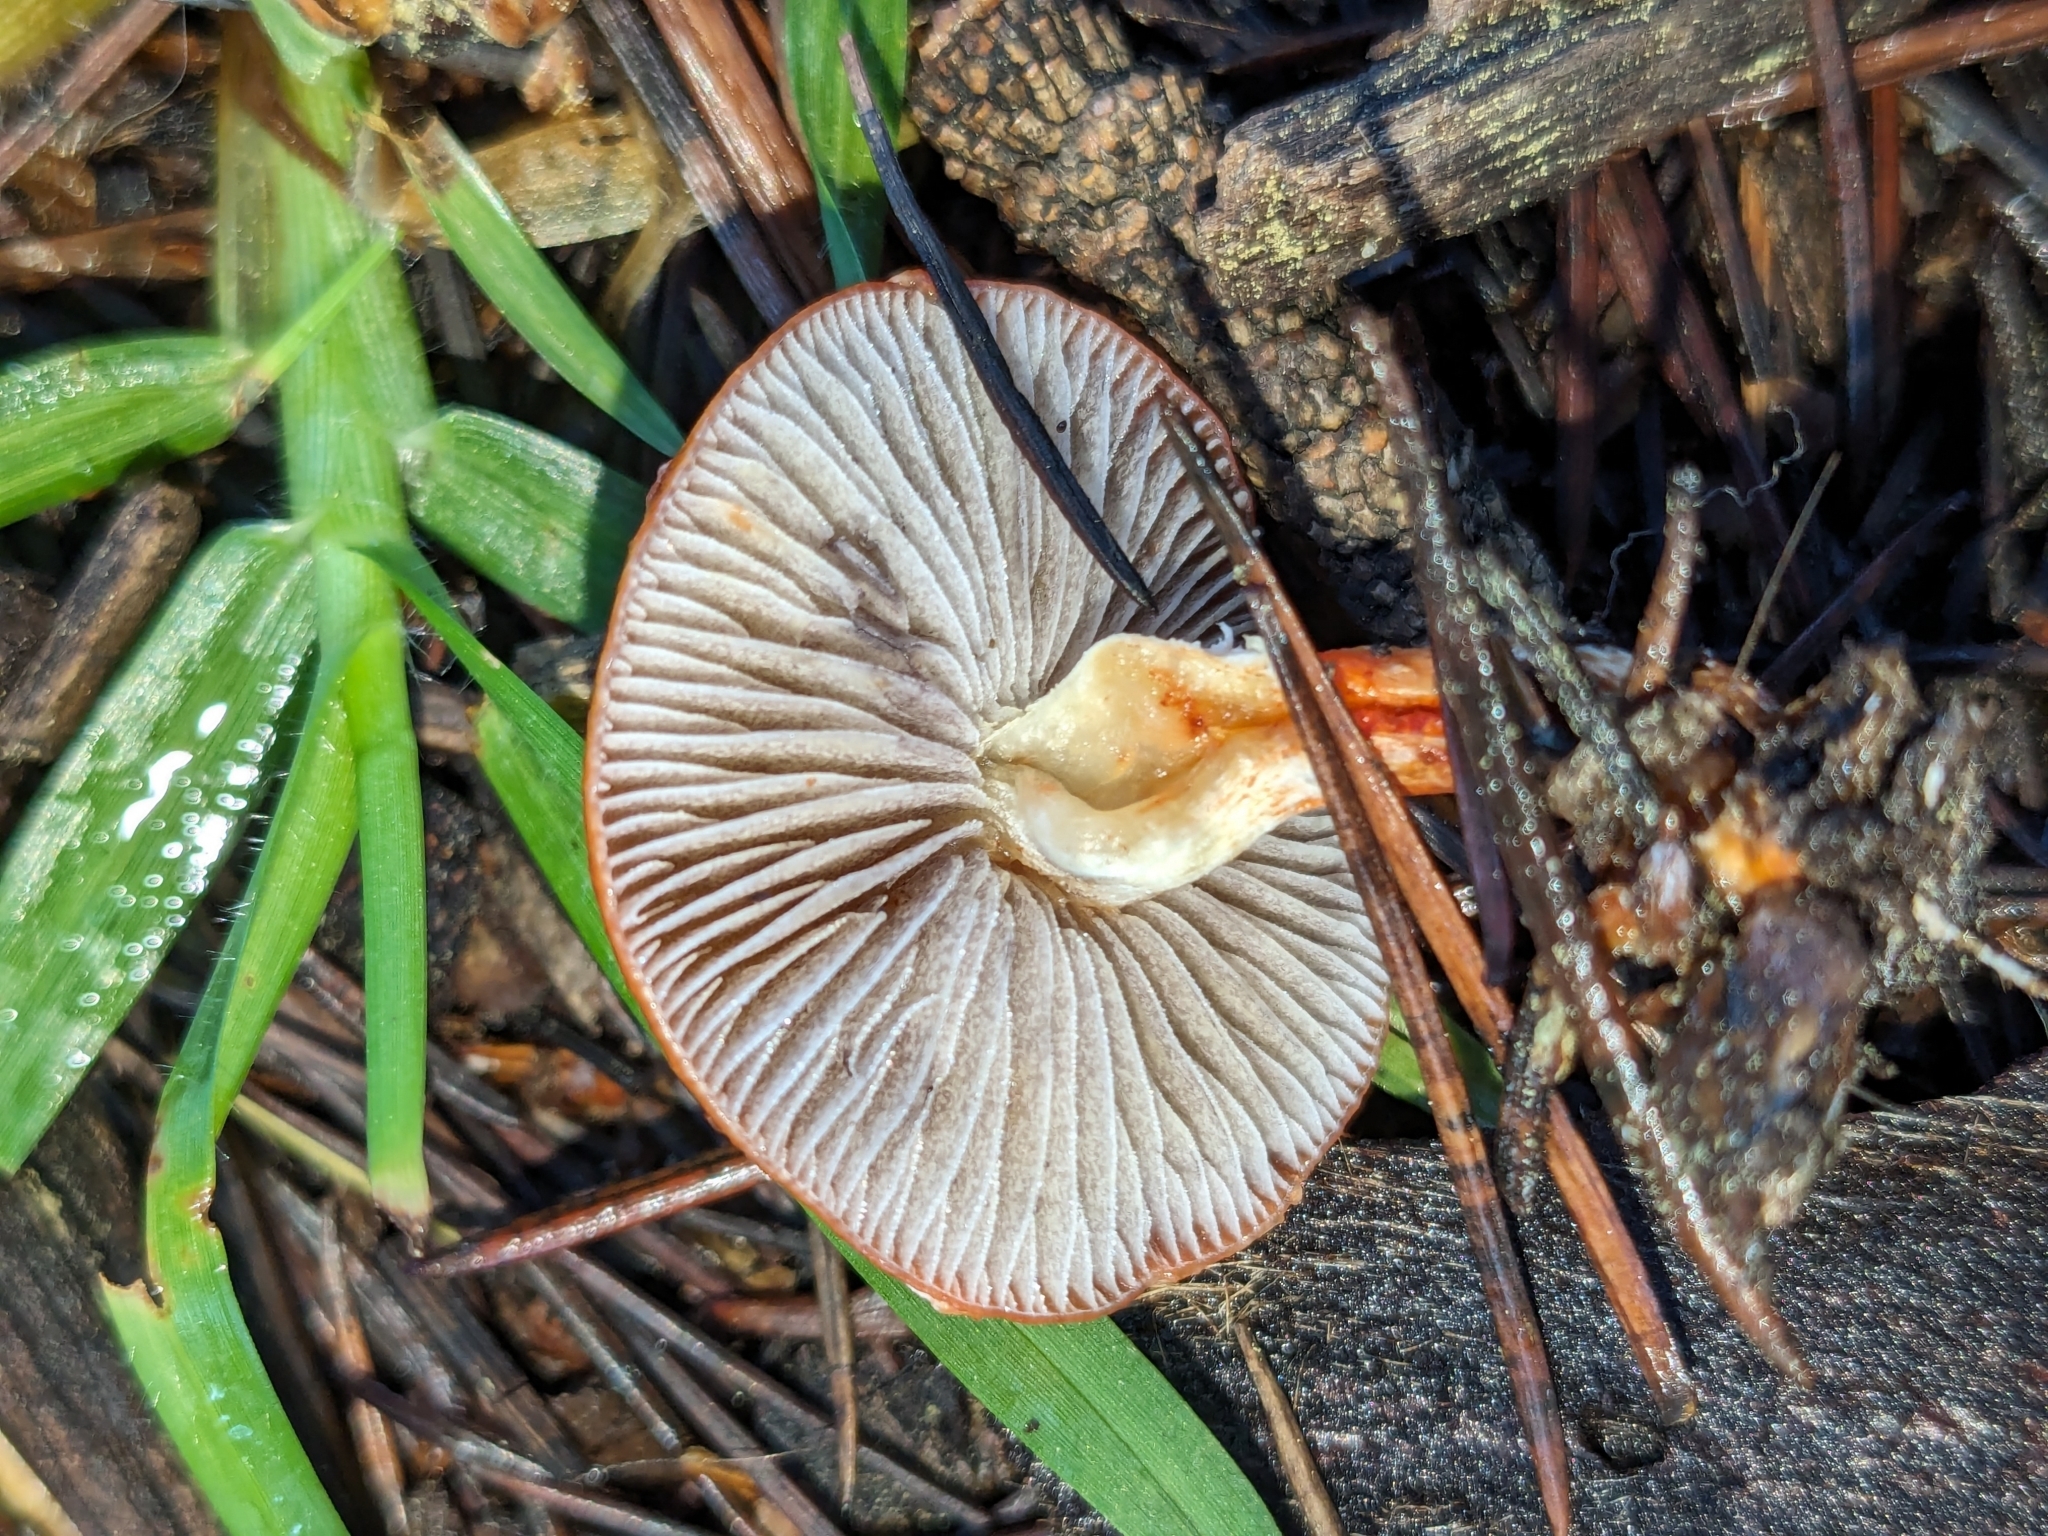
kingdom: Fungi
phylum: Basidiomycota
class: Agaricomycetes
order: Agaricales
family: Strophariaceae
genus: Leratiomyces
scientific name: Leratiomyces ceres
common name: Redlead roundhead
